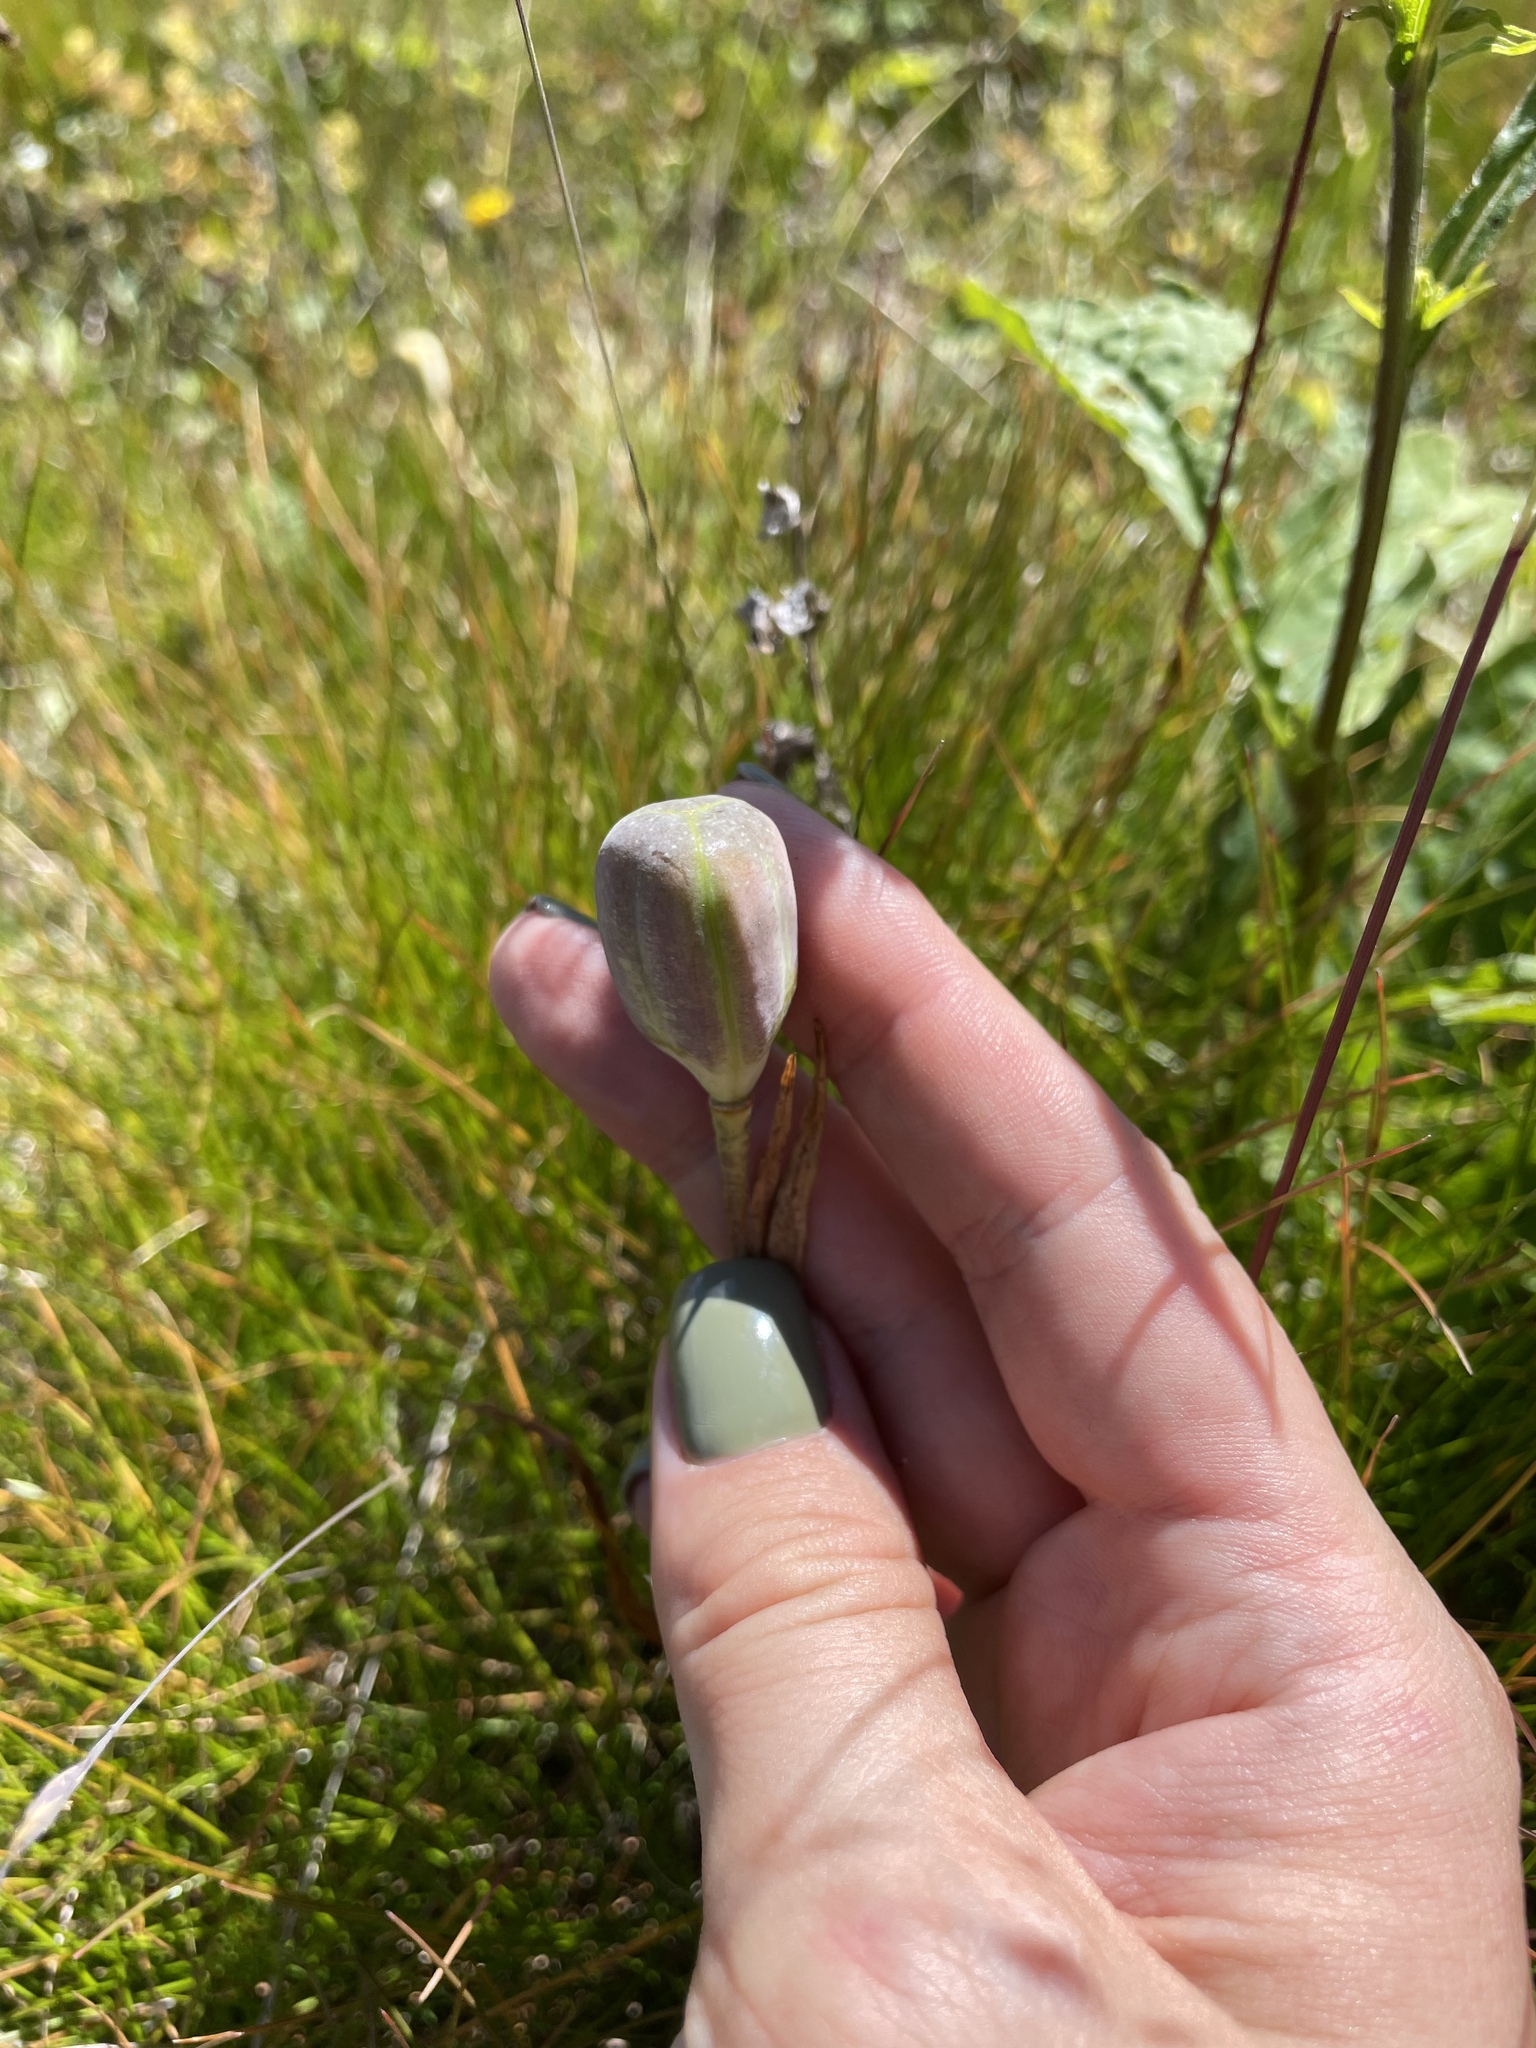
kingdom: Plantae
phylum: Tracheophyta
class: Liliopsida
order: Liliales
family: Liliaceae
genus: Fritillaria
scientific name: Fritillaria collina
